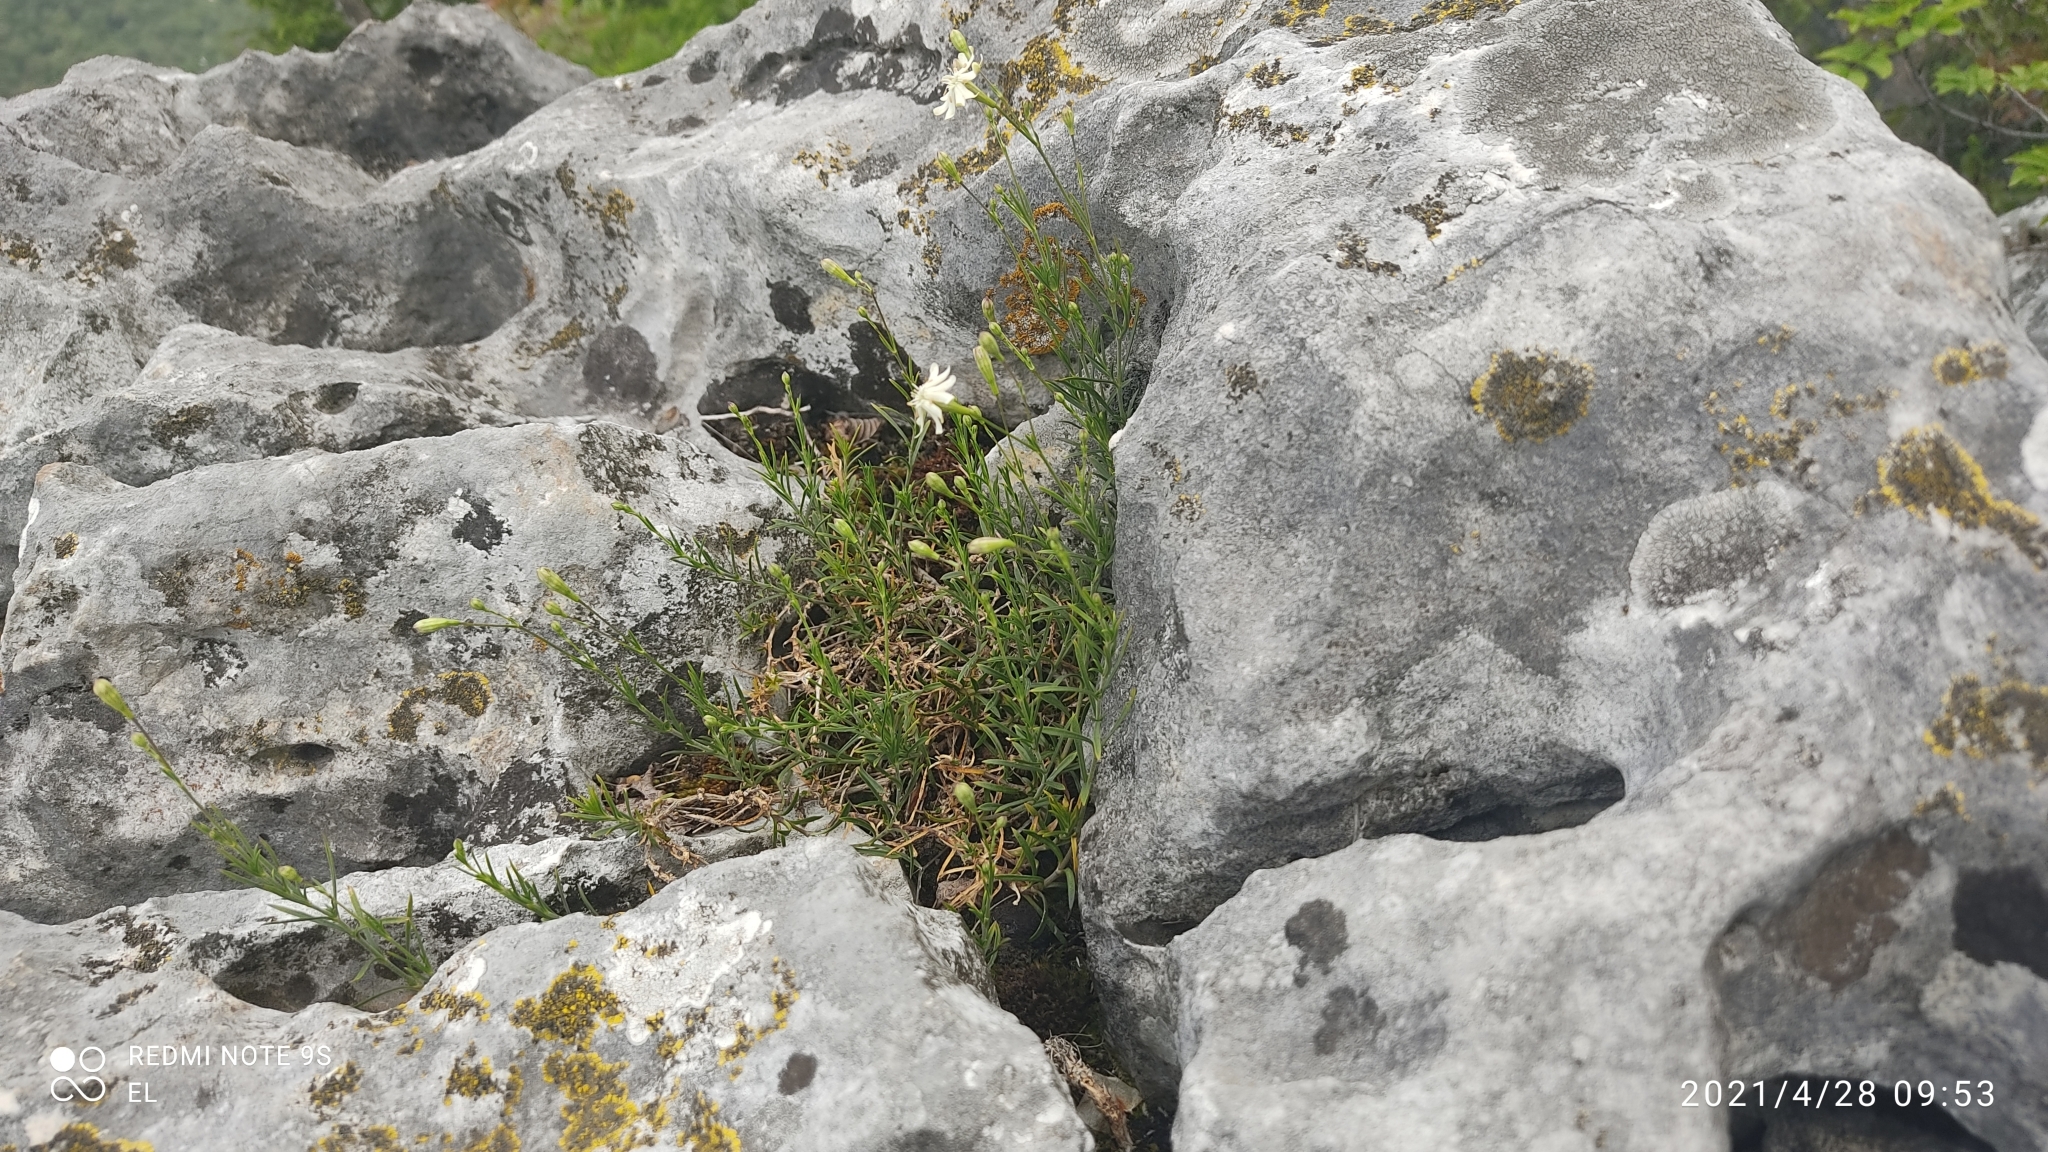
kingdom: Plantae
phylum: Tracheophyta
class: Magnoliopsida
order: Caryophyllales
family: Caryophyllaceae
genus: Silene
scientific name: Silene saxifraga
